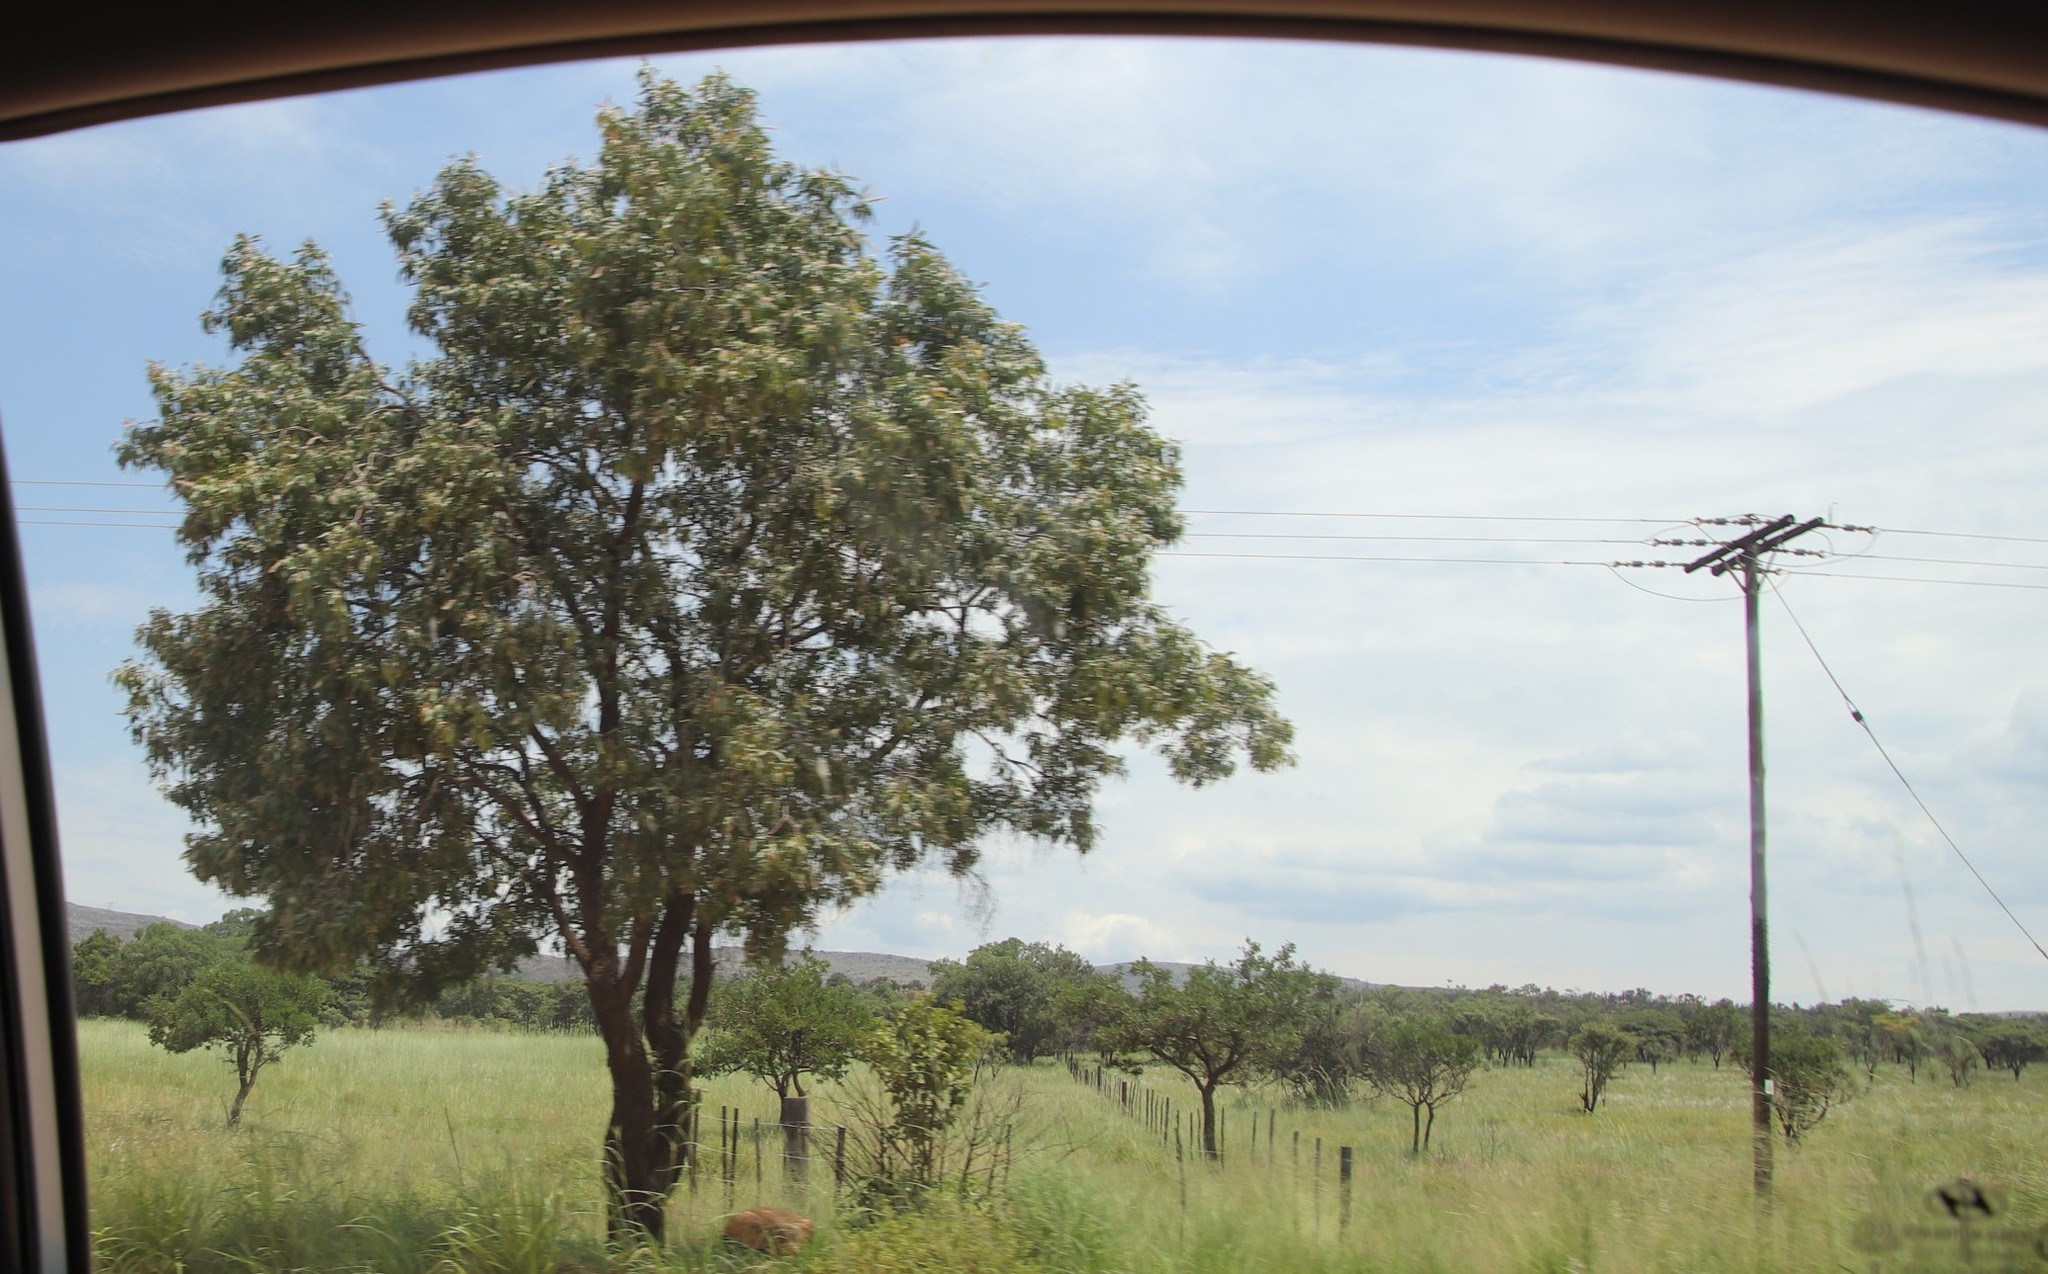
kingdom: Plantae
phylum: Tracheophyta
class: Magnoliopsida
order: Proteales
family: Proteaceae
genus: Faurea
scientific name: Faurea saligna
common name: African bean
